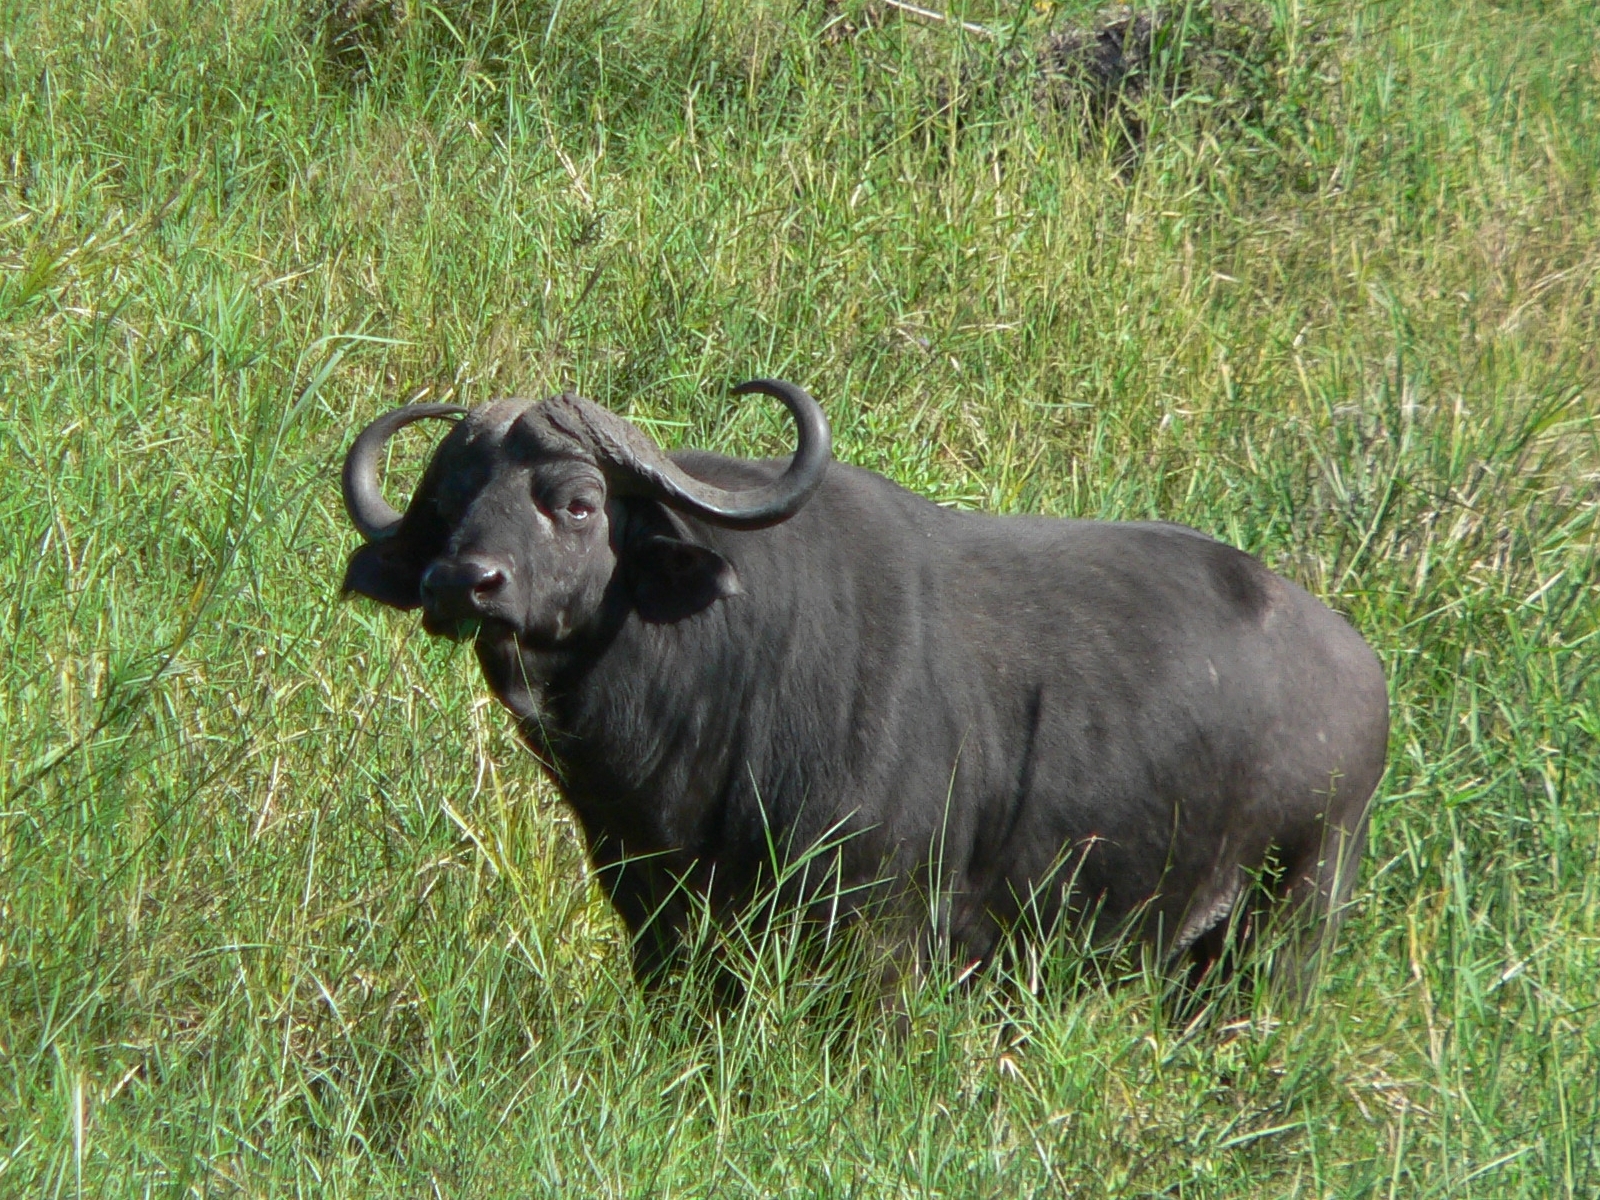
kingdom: Animalia
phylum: Chordata
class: Mammalia
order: Artiodactyla
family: Bovidae
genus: Syncerus
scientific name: Syncerus caffer
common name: African buffalo
